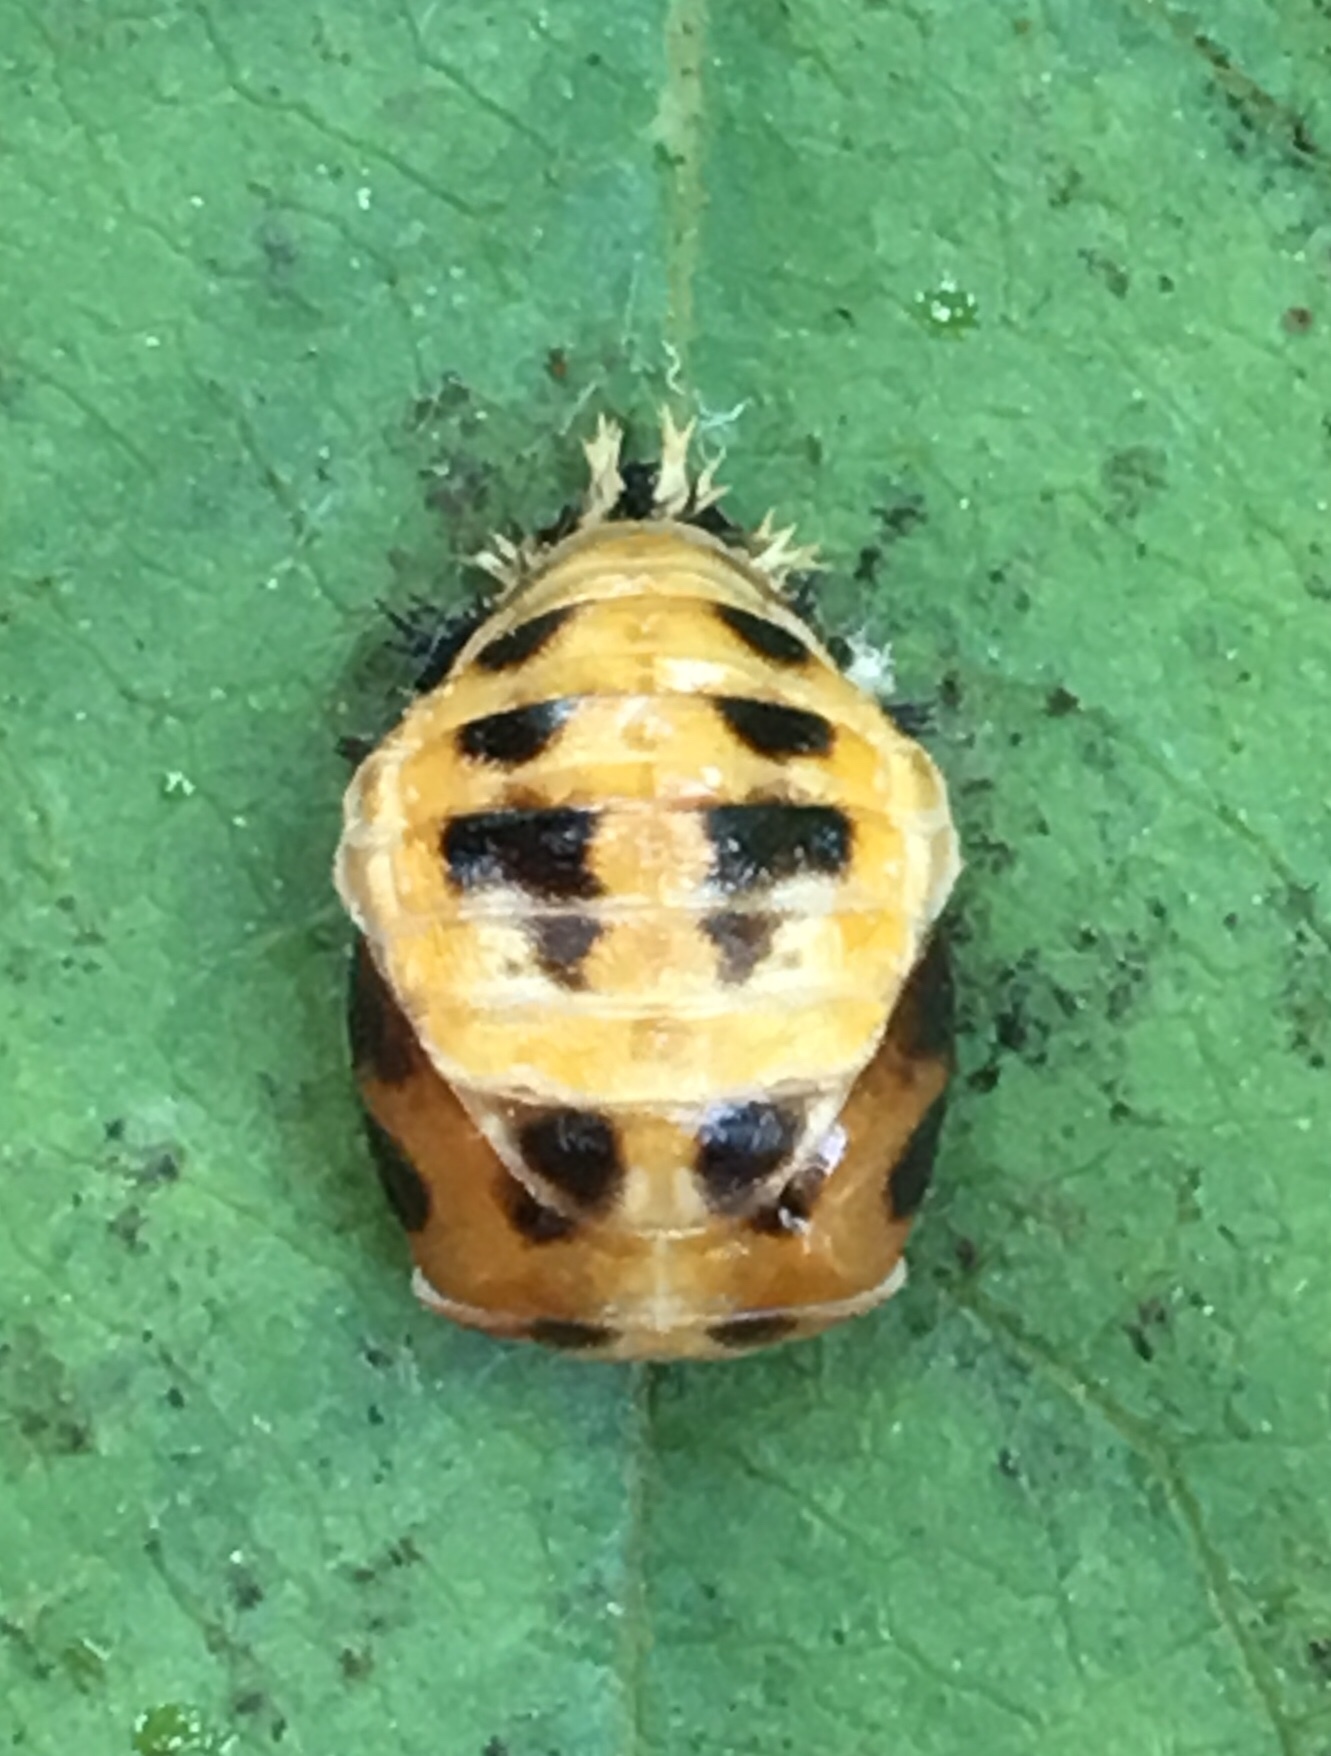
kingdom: Animalia
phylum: Arthropoda
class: Insecta
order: Coleoptera
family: Coccinellidae
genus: Harmonia
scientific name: Harmonia axyridis
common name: Harlequin ladybird
